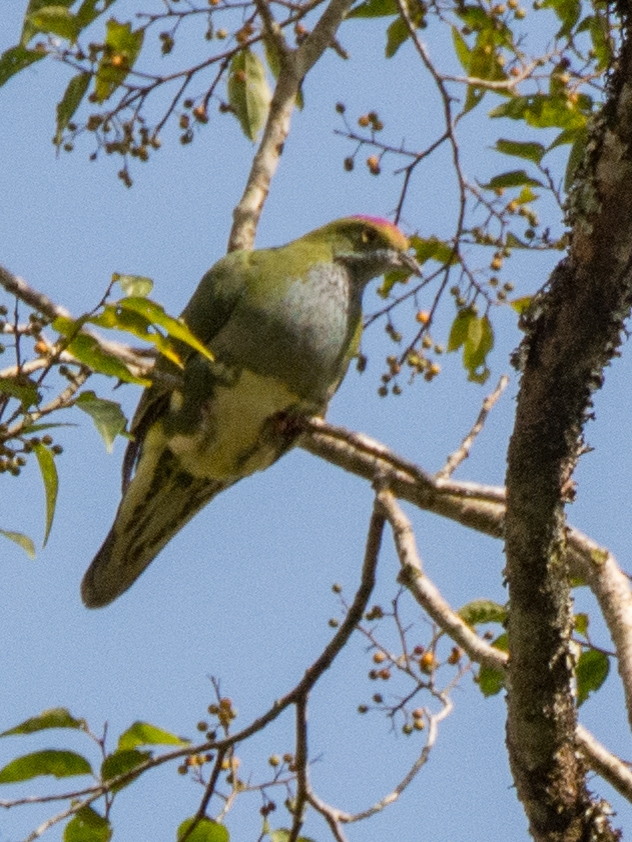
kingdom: Animalia
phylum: Chordata
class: Aves
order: Columbiformes
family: Columbidae
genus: Ptilinopus
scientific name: Ptilinopus superbus
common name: Superb fruit dove
